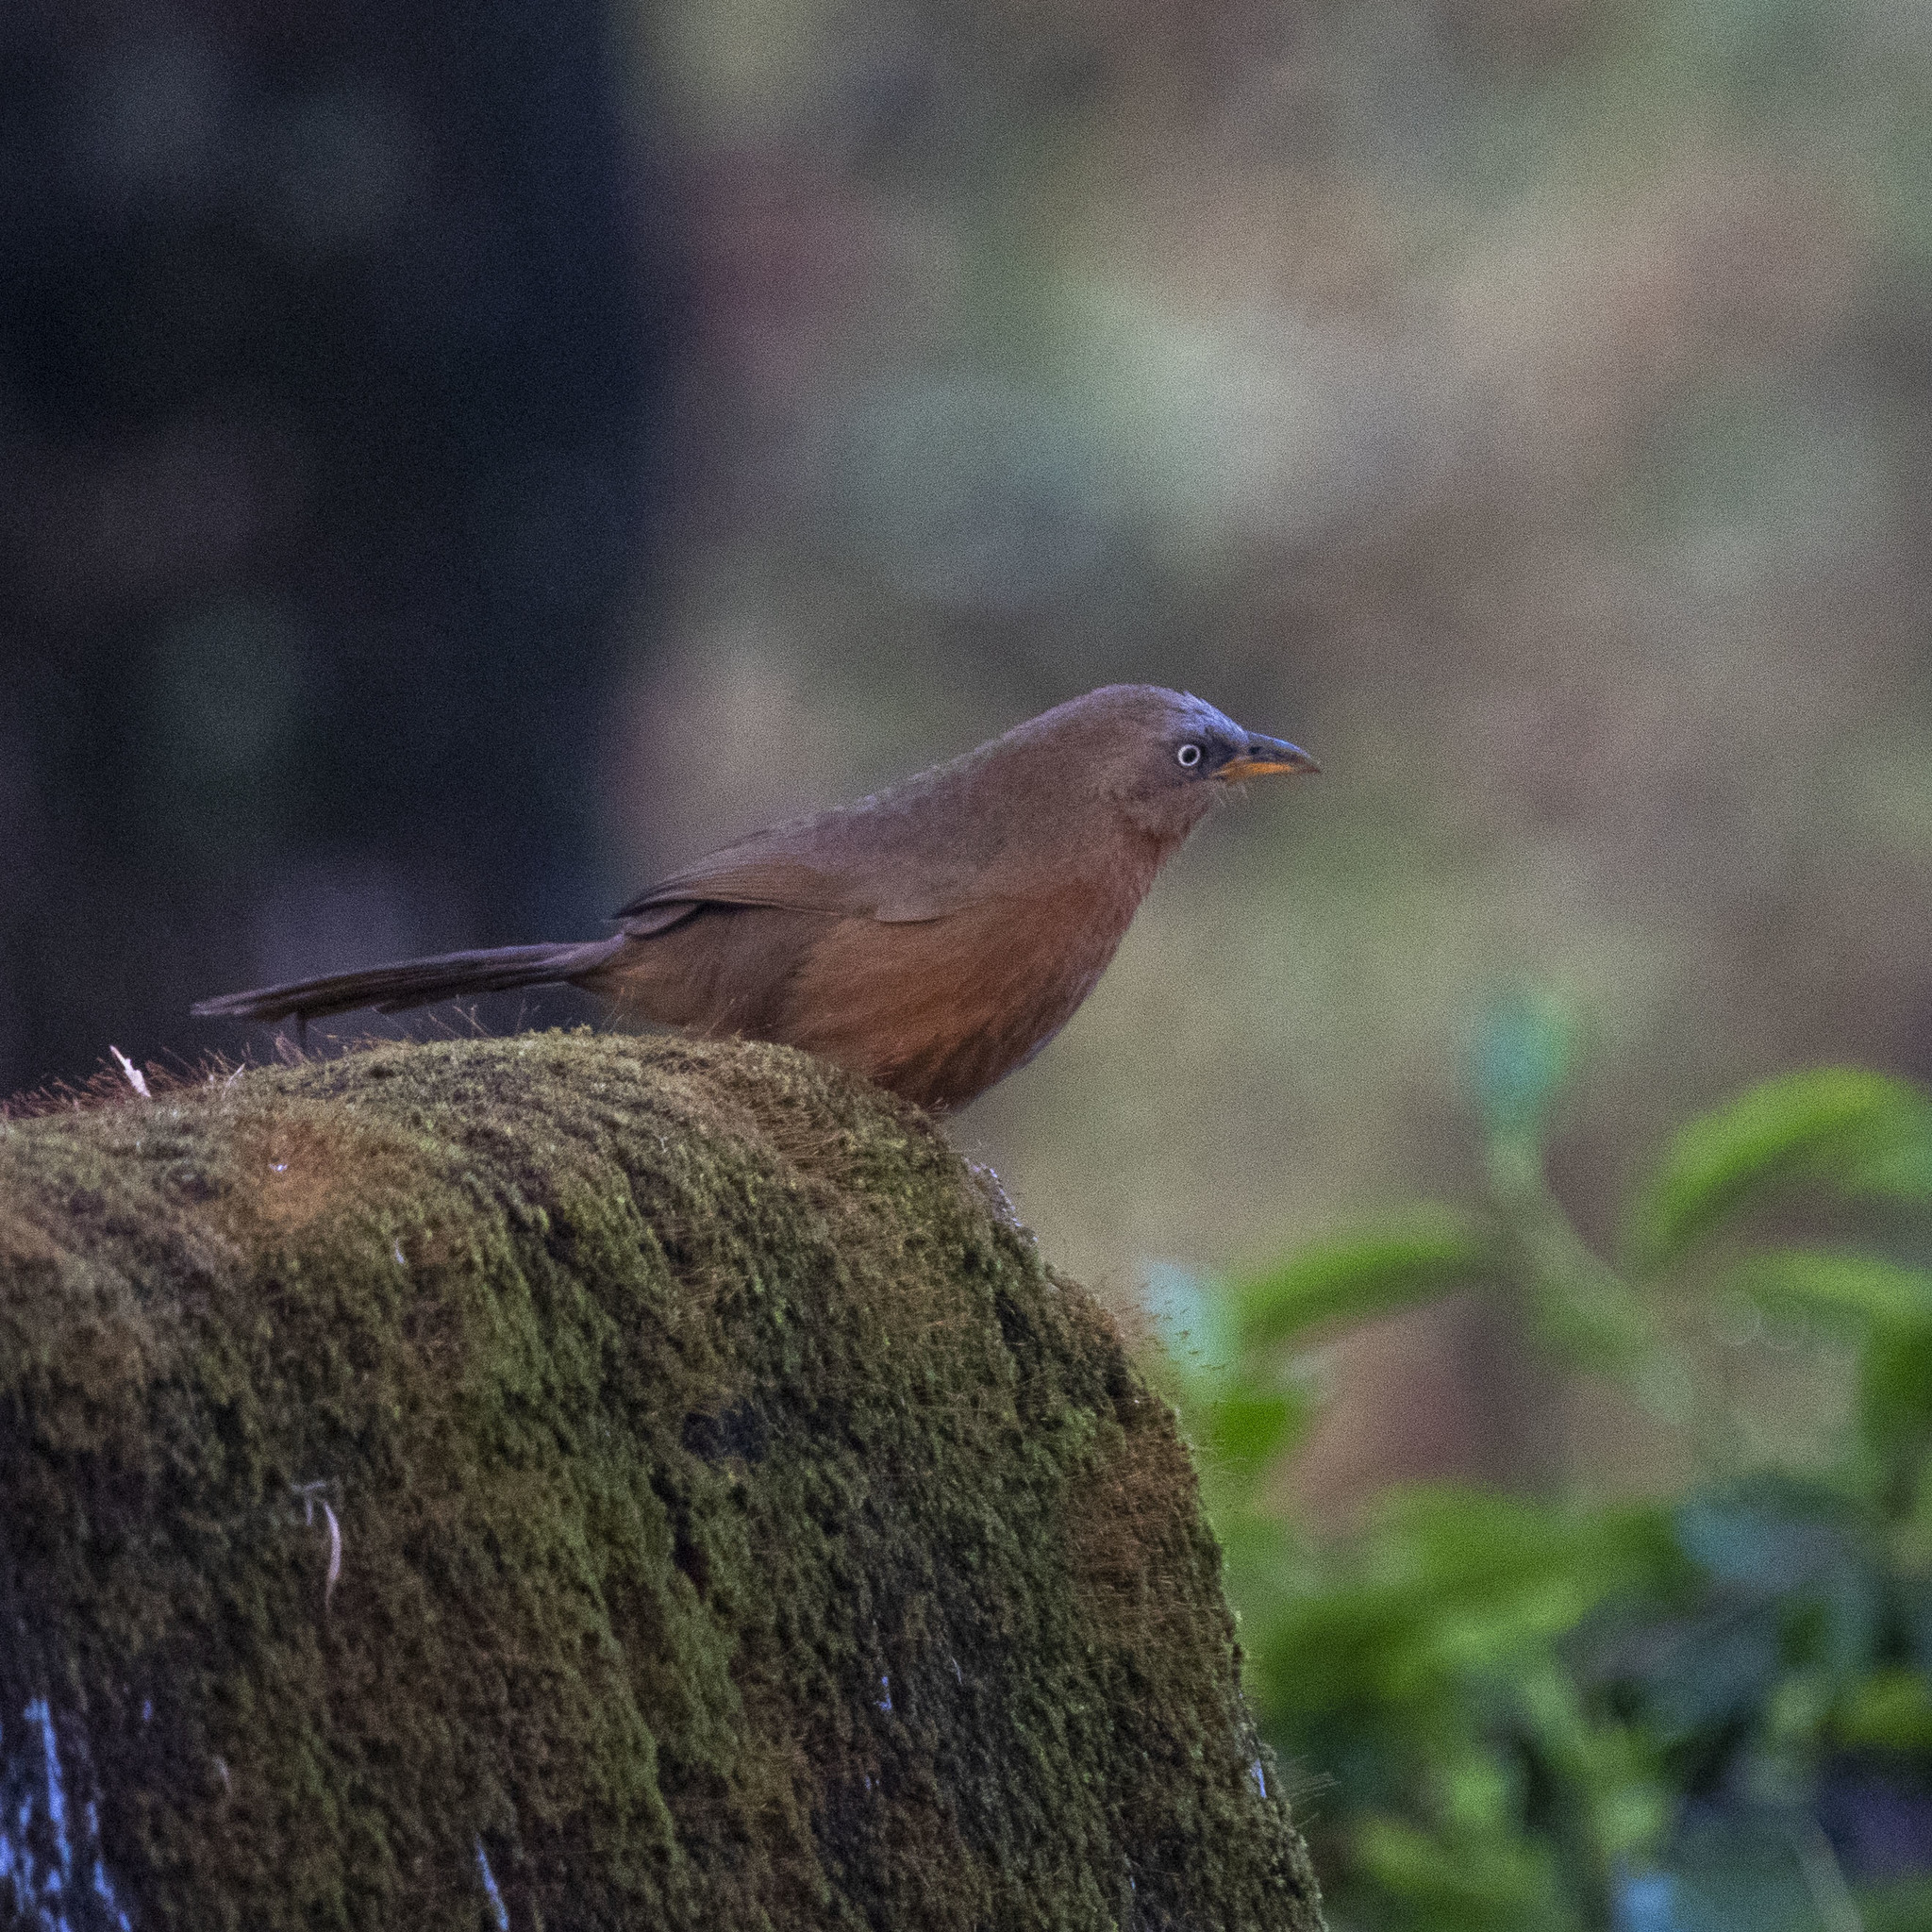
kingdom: Animalia
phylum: Chordata
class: Aves
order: Passeriformes
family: Leiothrichidae
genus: Turdoides
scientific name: Turdoides subrufa
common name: Rufous babbler
